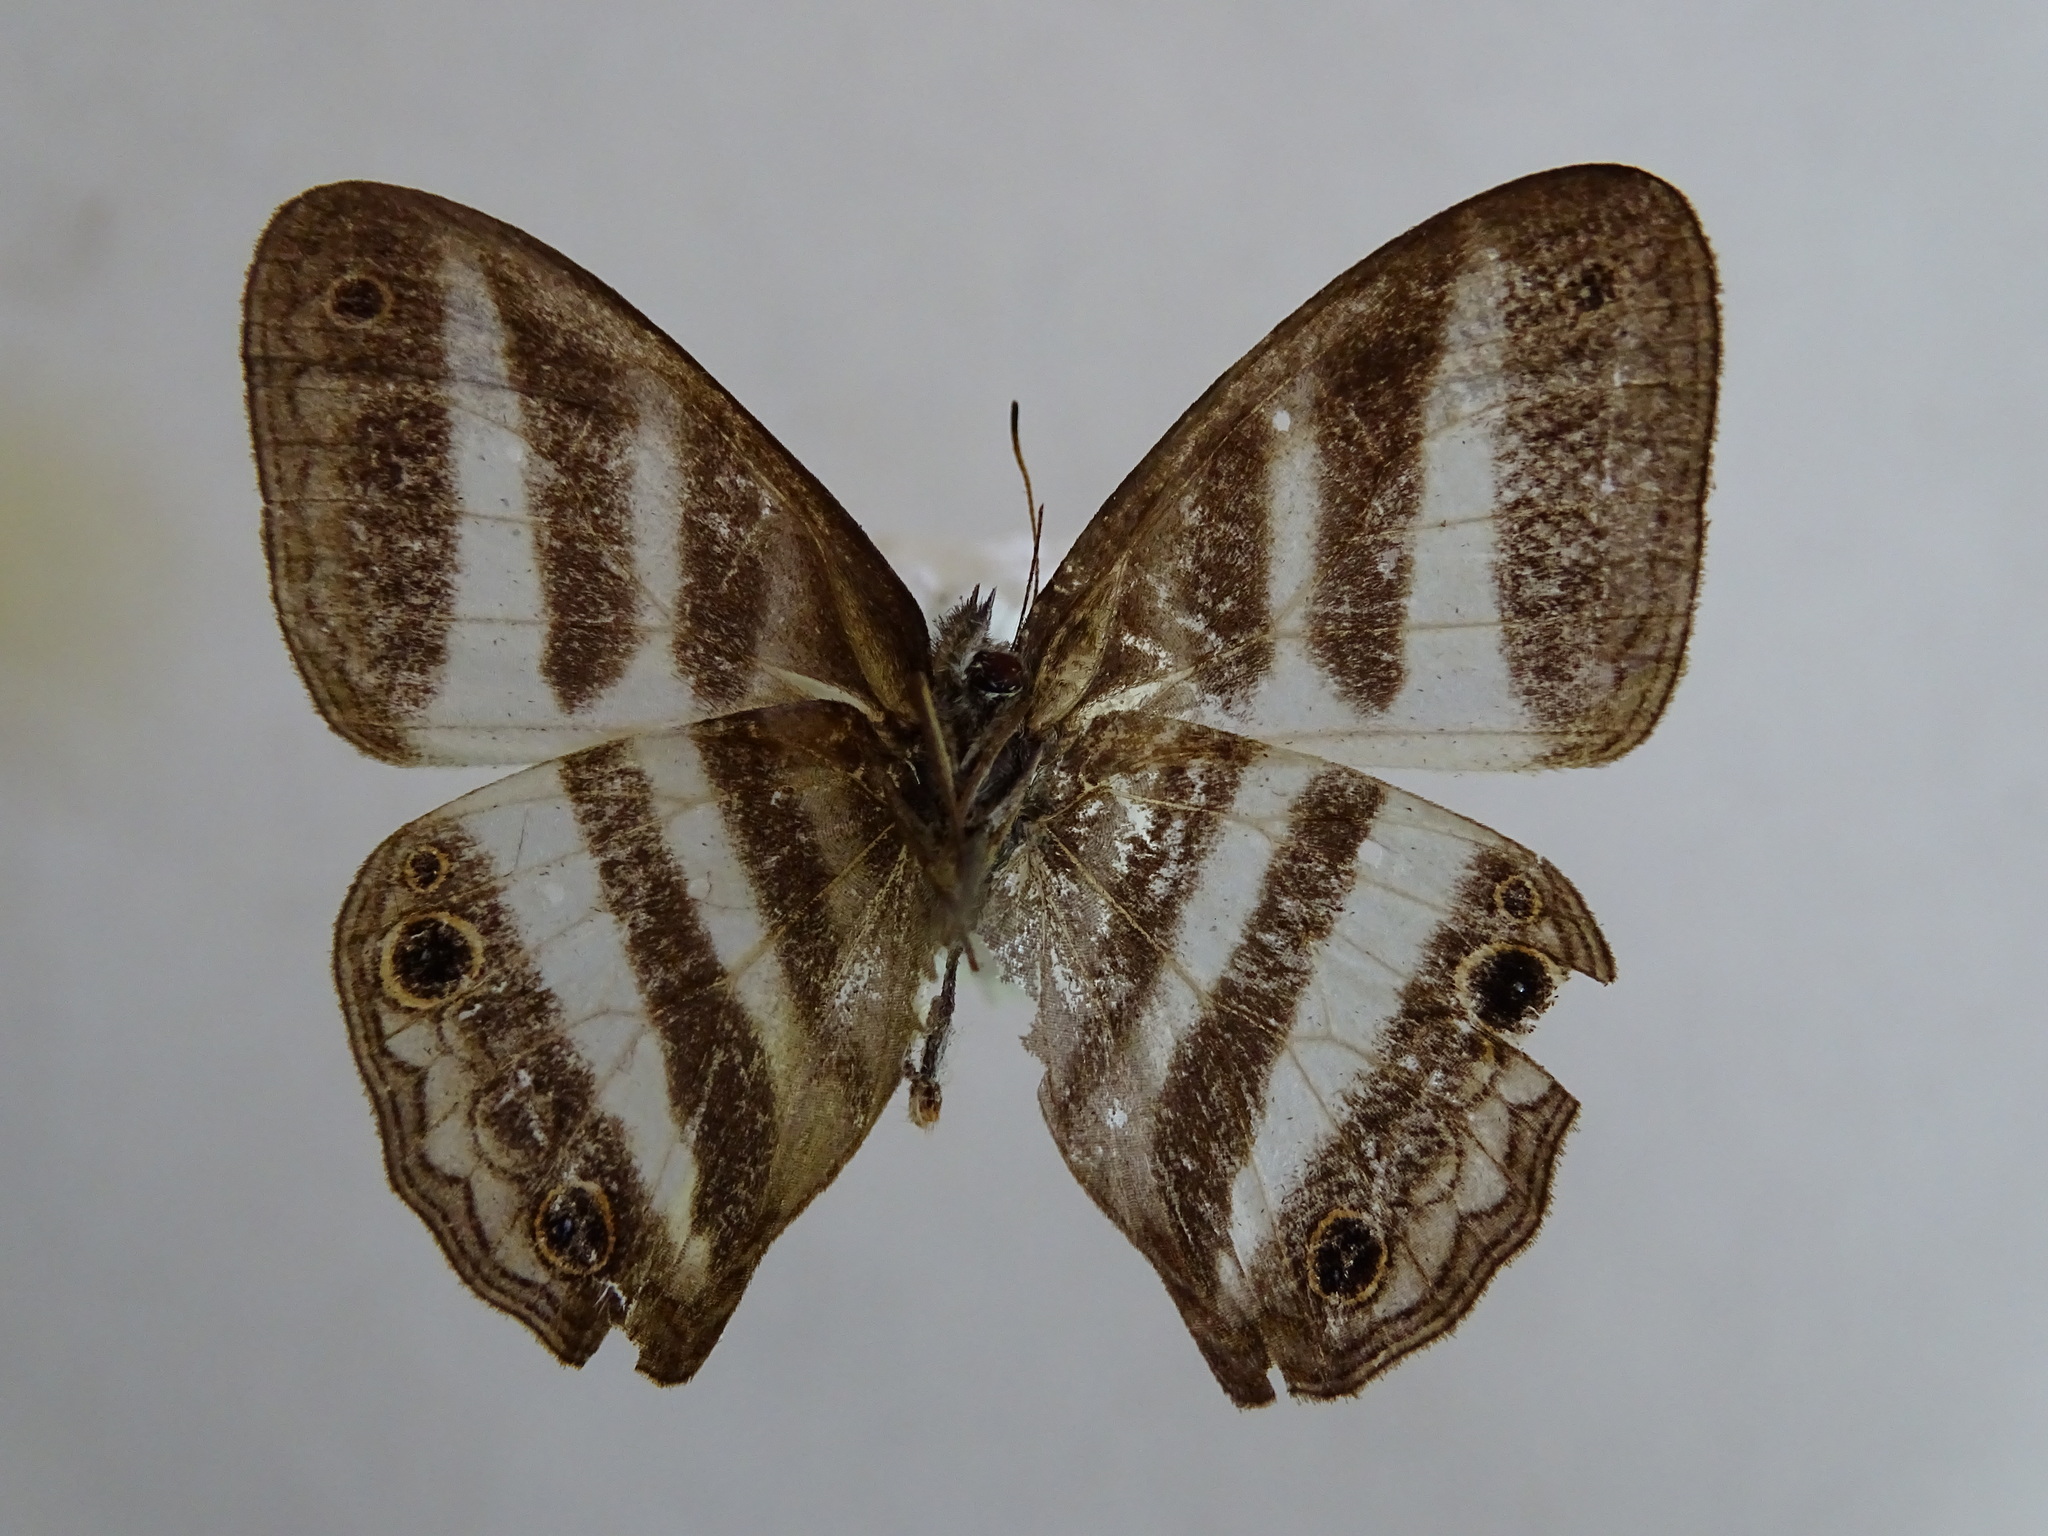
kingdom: Animalia
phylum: Arthropoda
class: Insecta
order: Lepidoptera
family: Nymphalidae
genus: Pareuptychia
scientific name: Pareuptychia hesione
